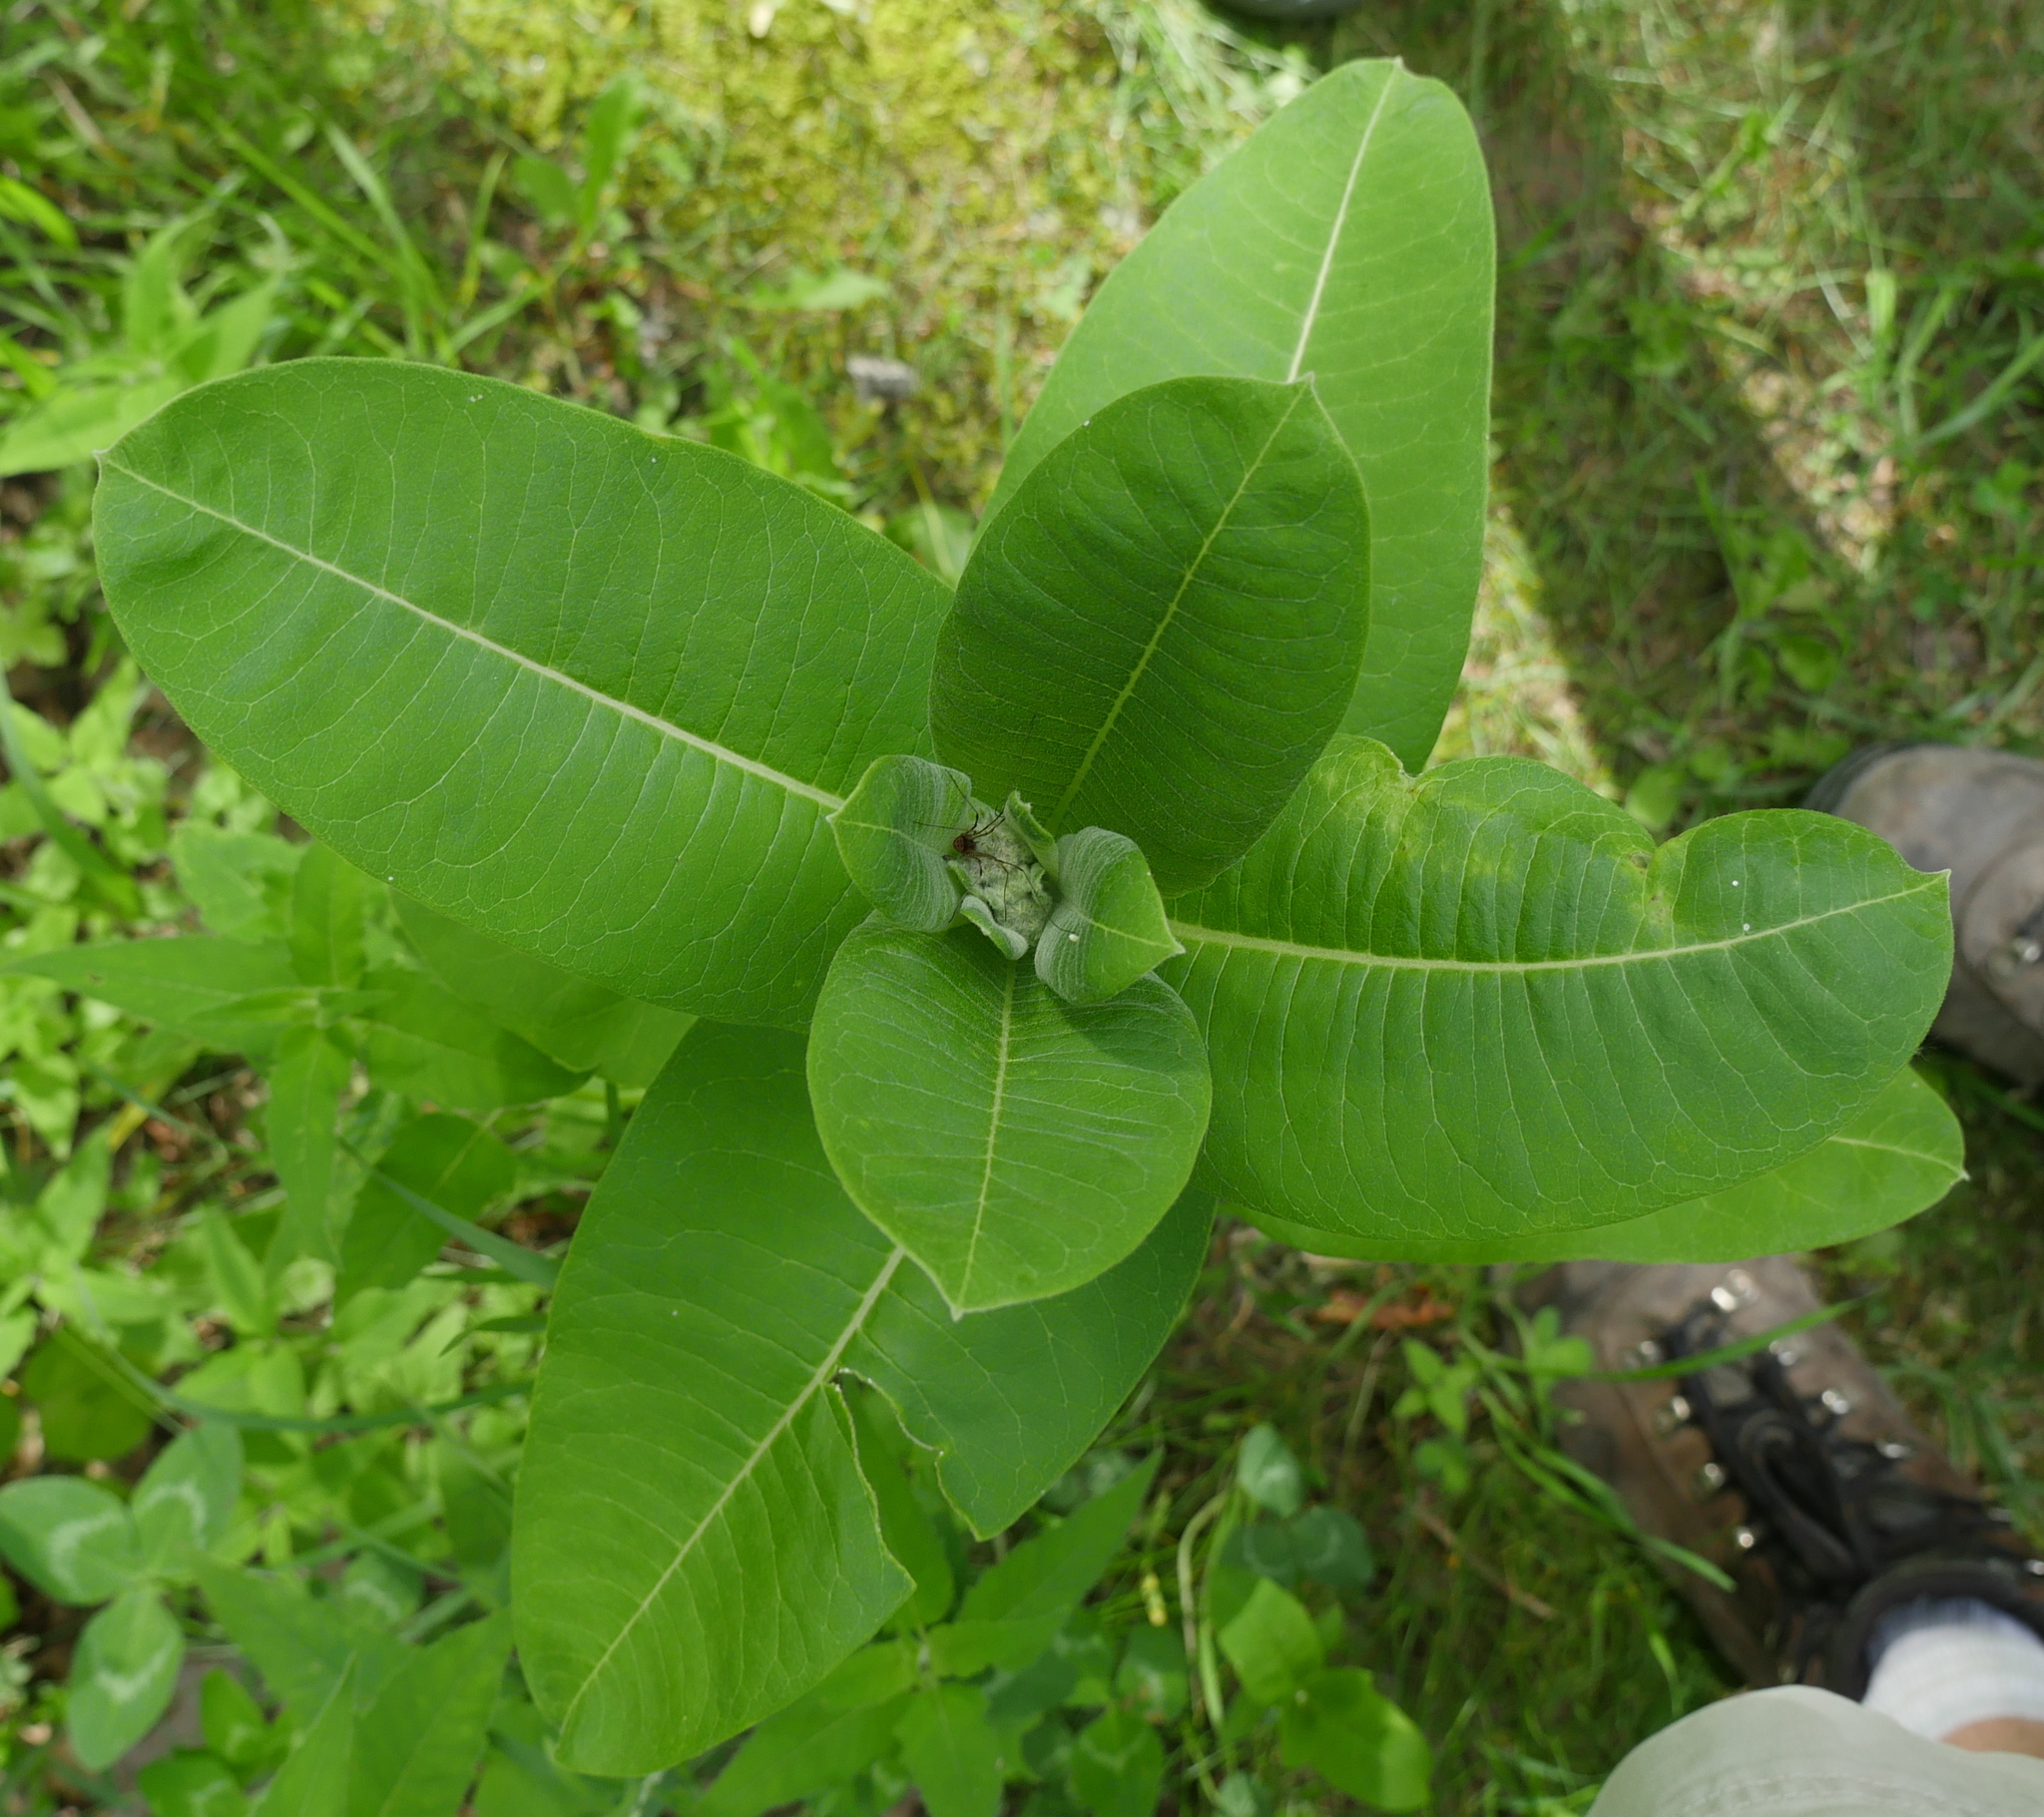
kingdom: Plantae
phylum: Tracheophyta
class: Magnoliopsida
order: Gentianales
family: Apocynaceae
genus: Asclepias
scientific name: Asclepias syriaca
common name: Common milkweed
